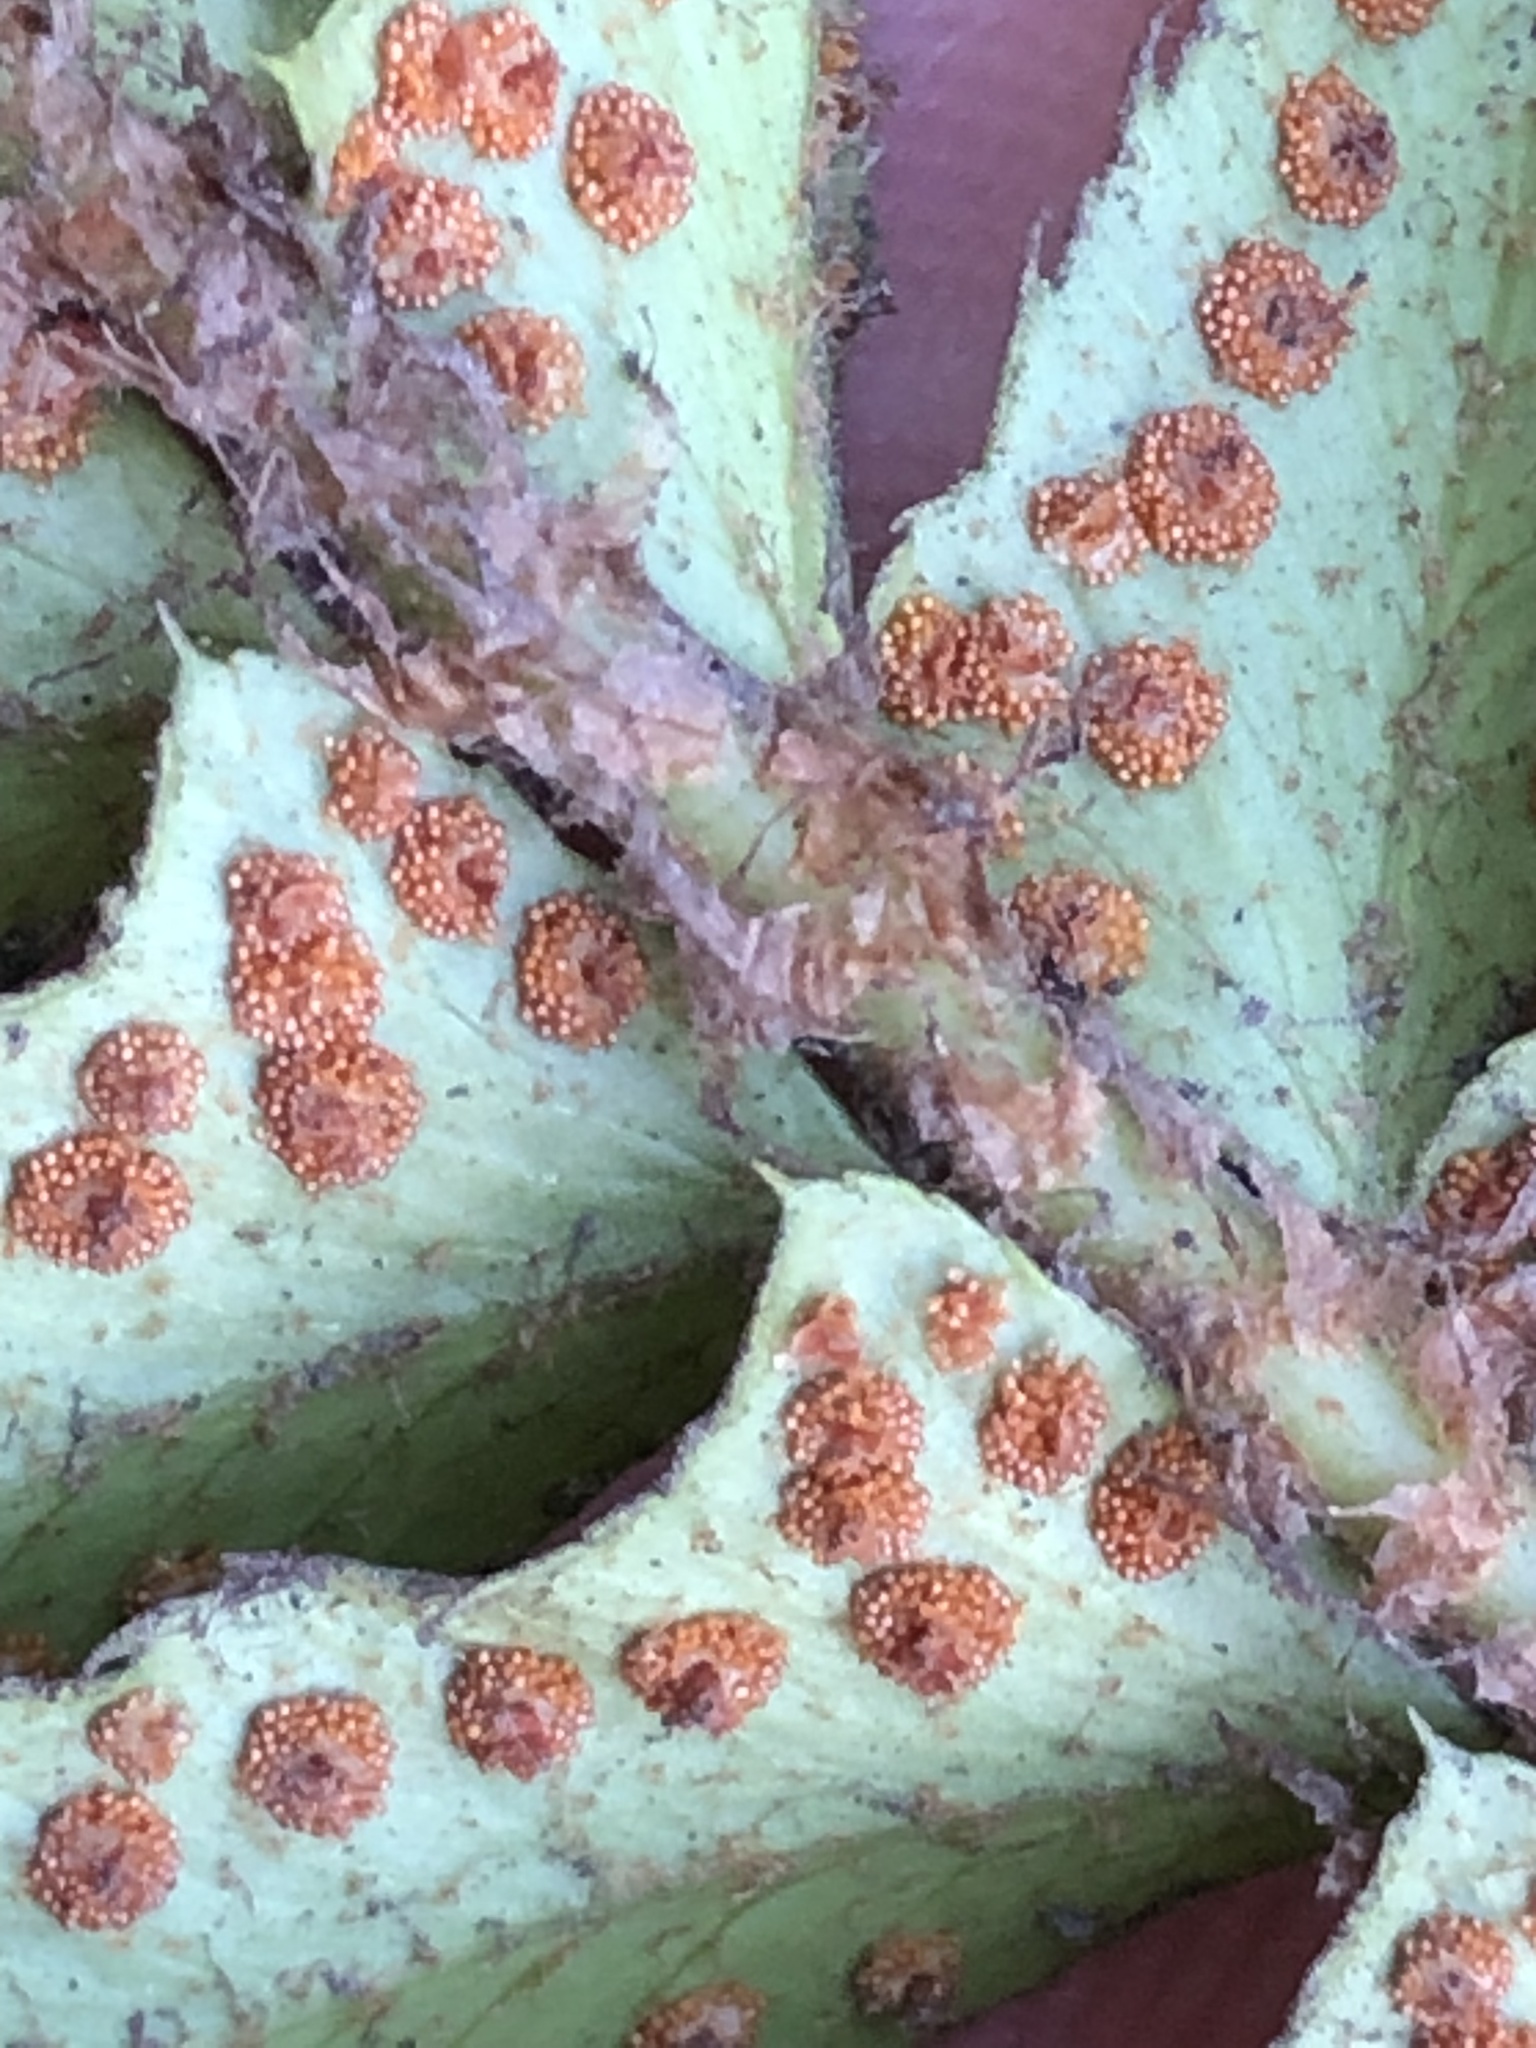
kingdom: Plantae
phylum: Tracheophyta
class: Polypodiopsida
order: Polypodiales
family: Dryopteridaceae
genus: Polystichum
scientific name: Polystichum munitum
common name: Western sword-fern
